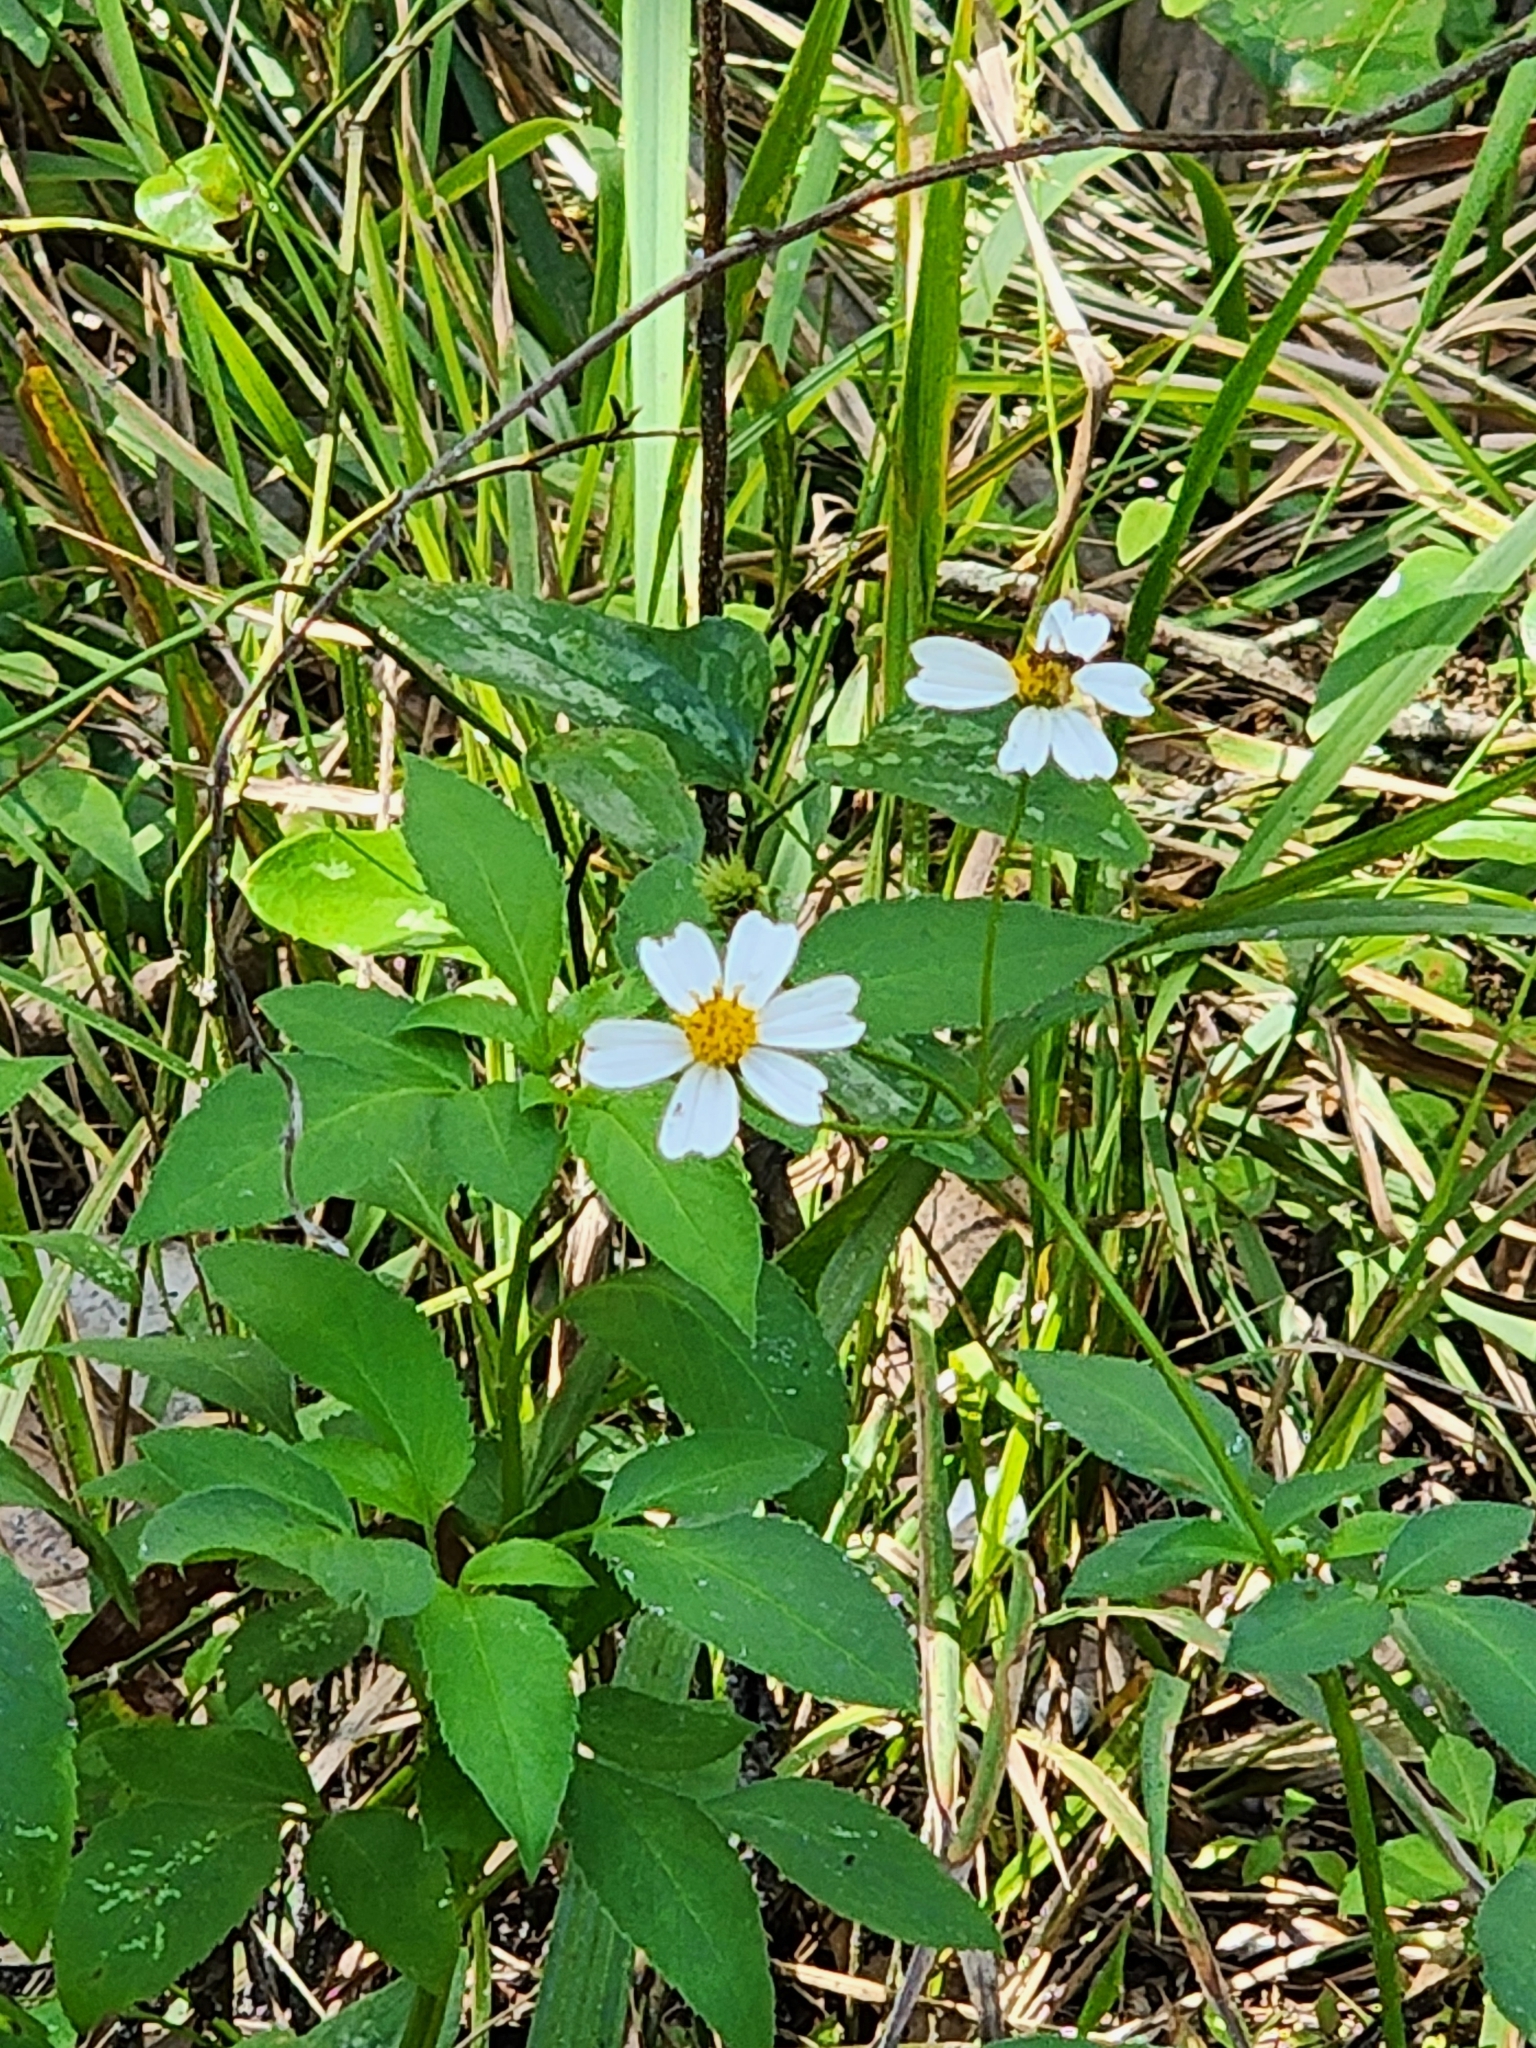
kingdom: Plantae
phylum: Tracheophyta
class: Magnoliopsida
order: Asterales
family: Asteraceae
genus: Bidens
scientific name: Bidens alba
